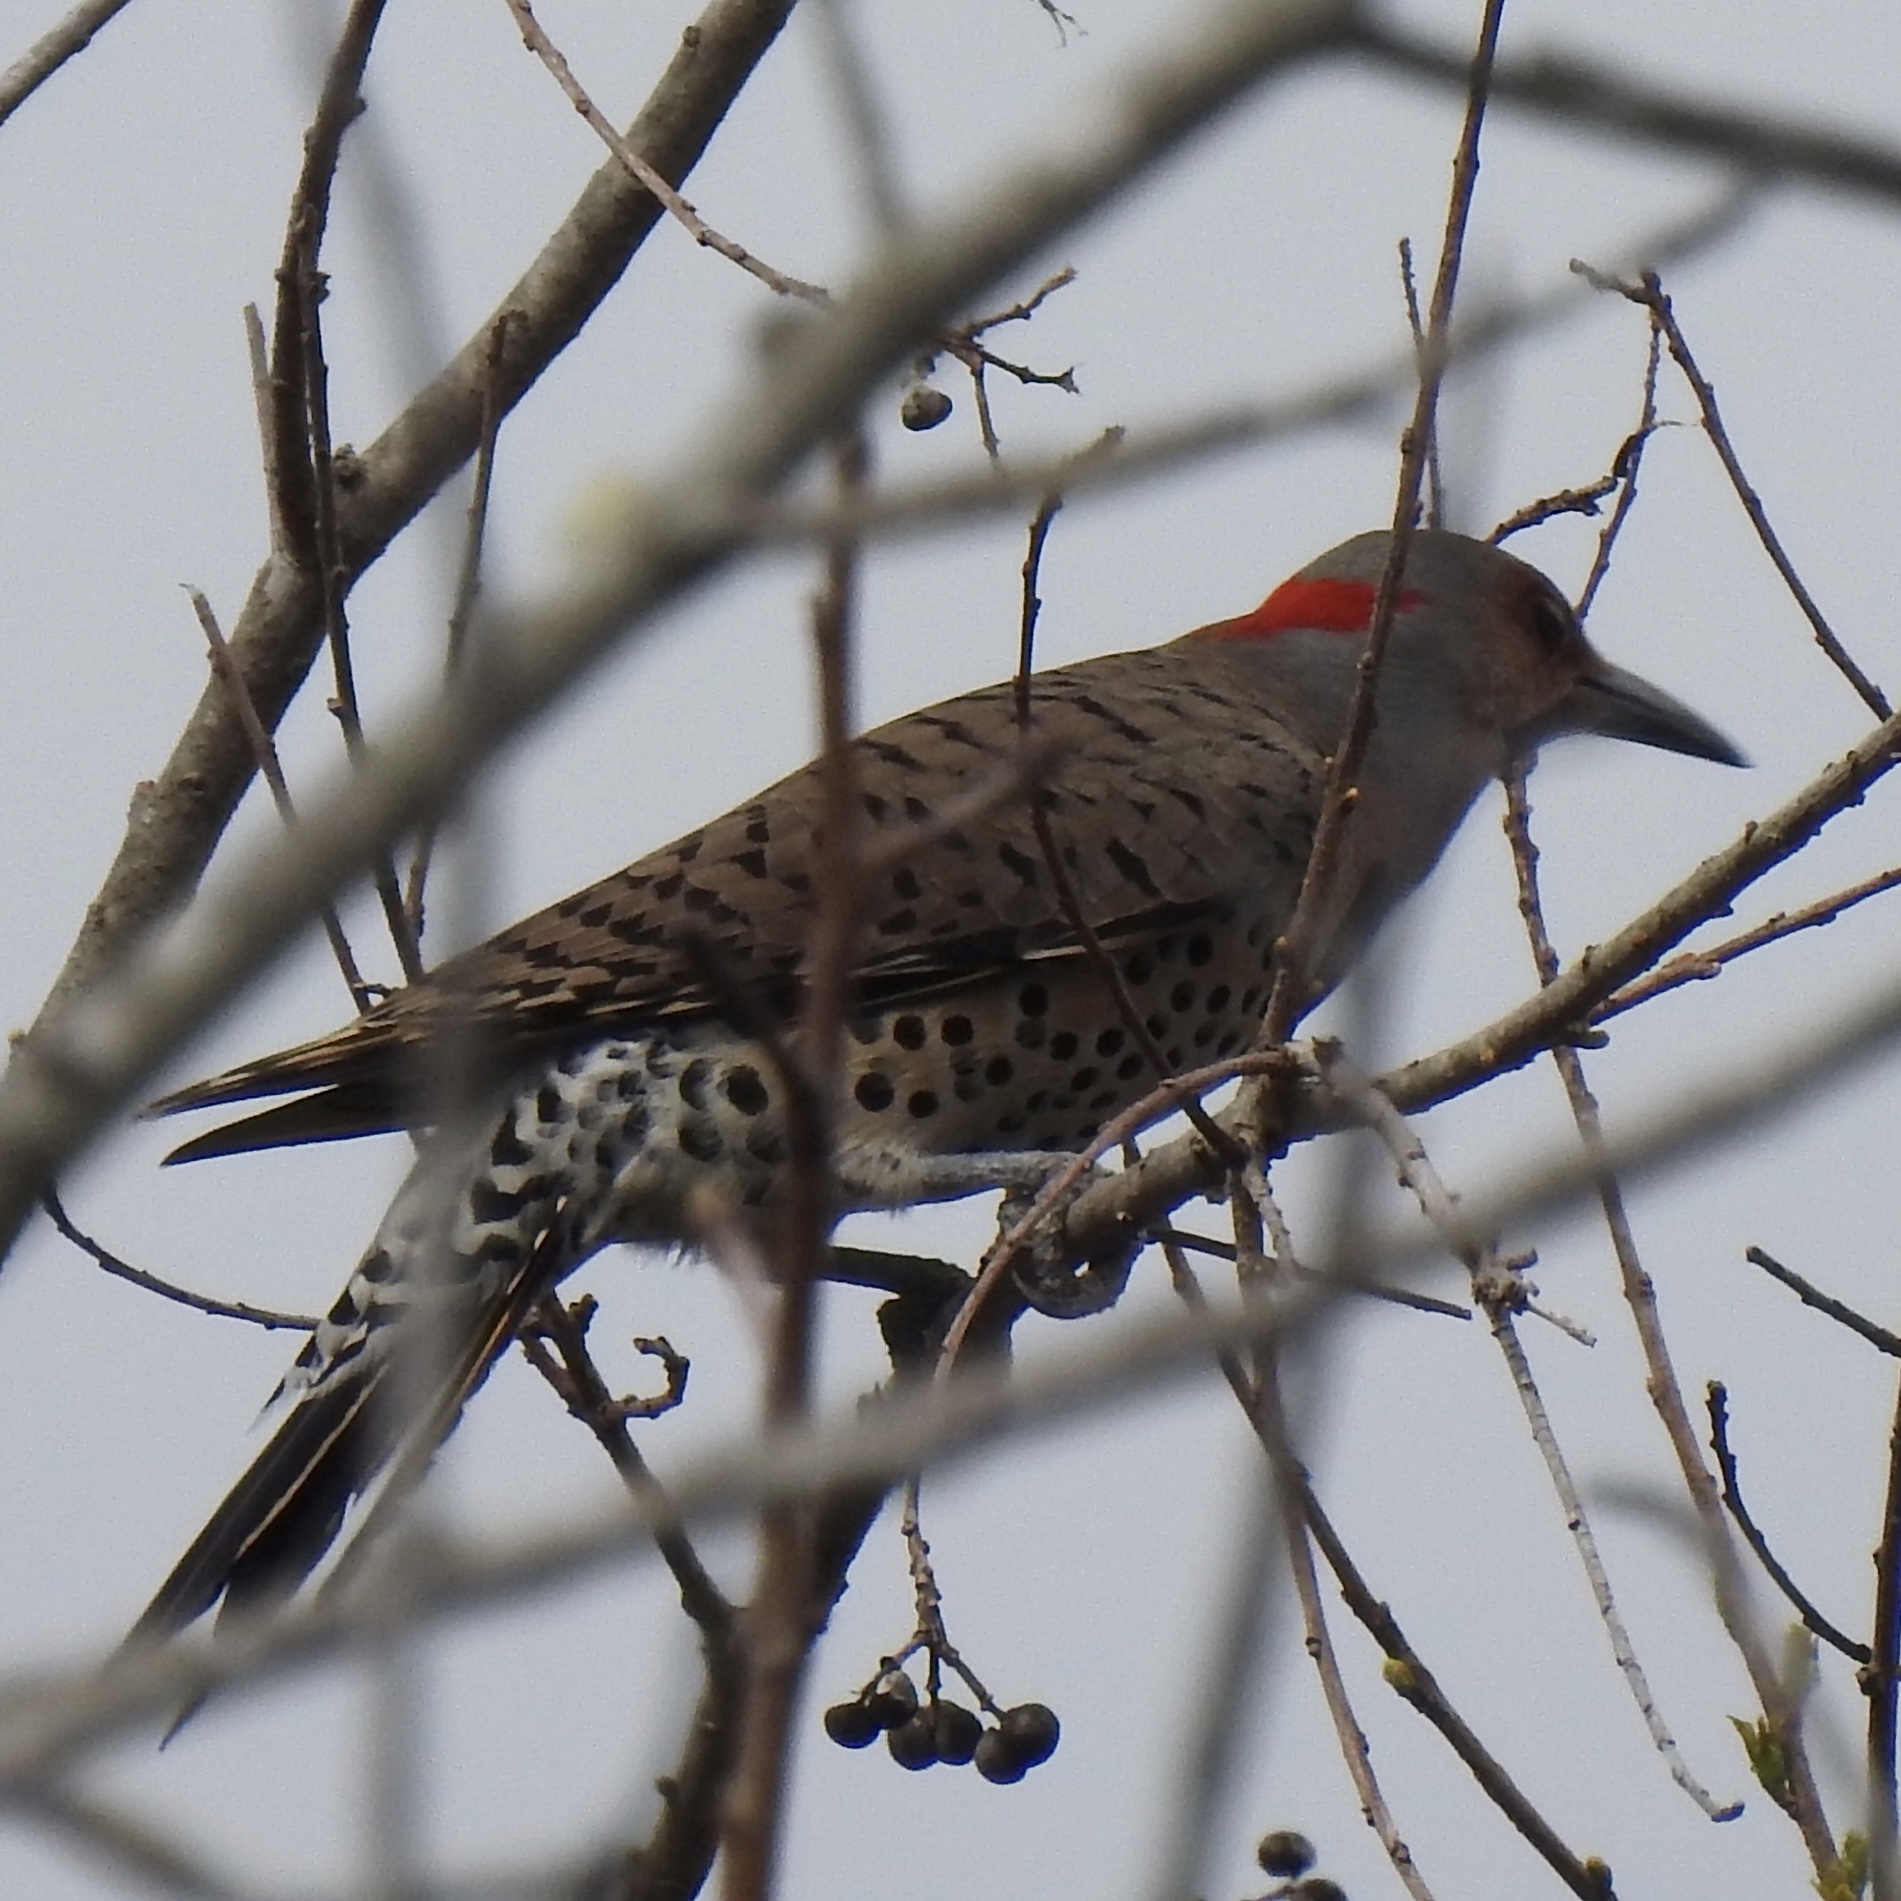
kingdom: Animalia
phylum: Chordata
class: Aves
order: Piciformes
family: Picidae
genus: Colaptes
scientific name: Colaptes auratus
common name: Northern flicker
